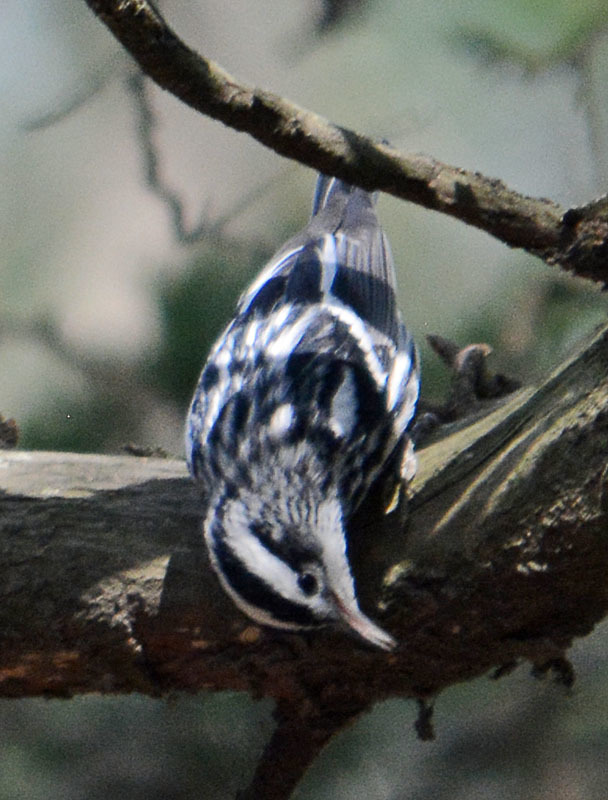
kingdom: Animalia
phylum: Chordata
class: Aves
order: Passeriformes
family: Parulidae
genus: Mniotilta
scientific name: Mniotilta varia
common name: Black-and-white warbler
